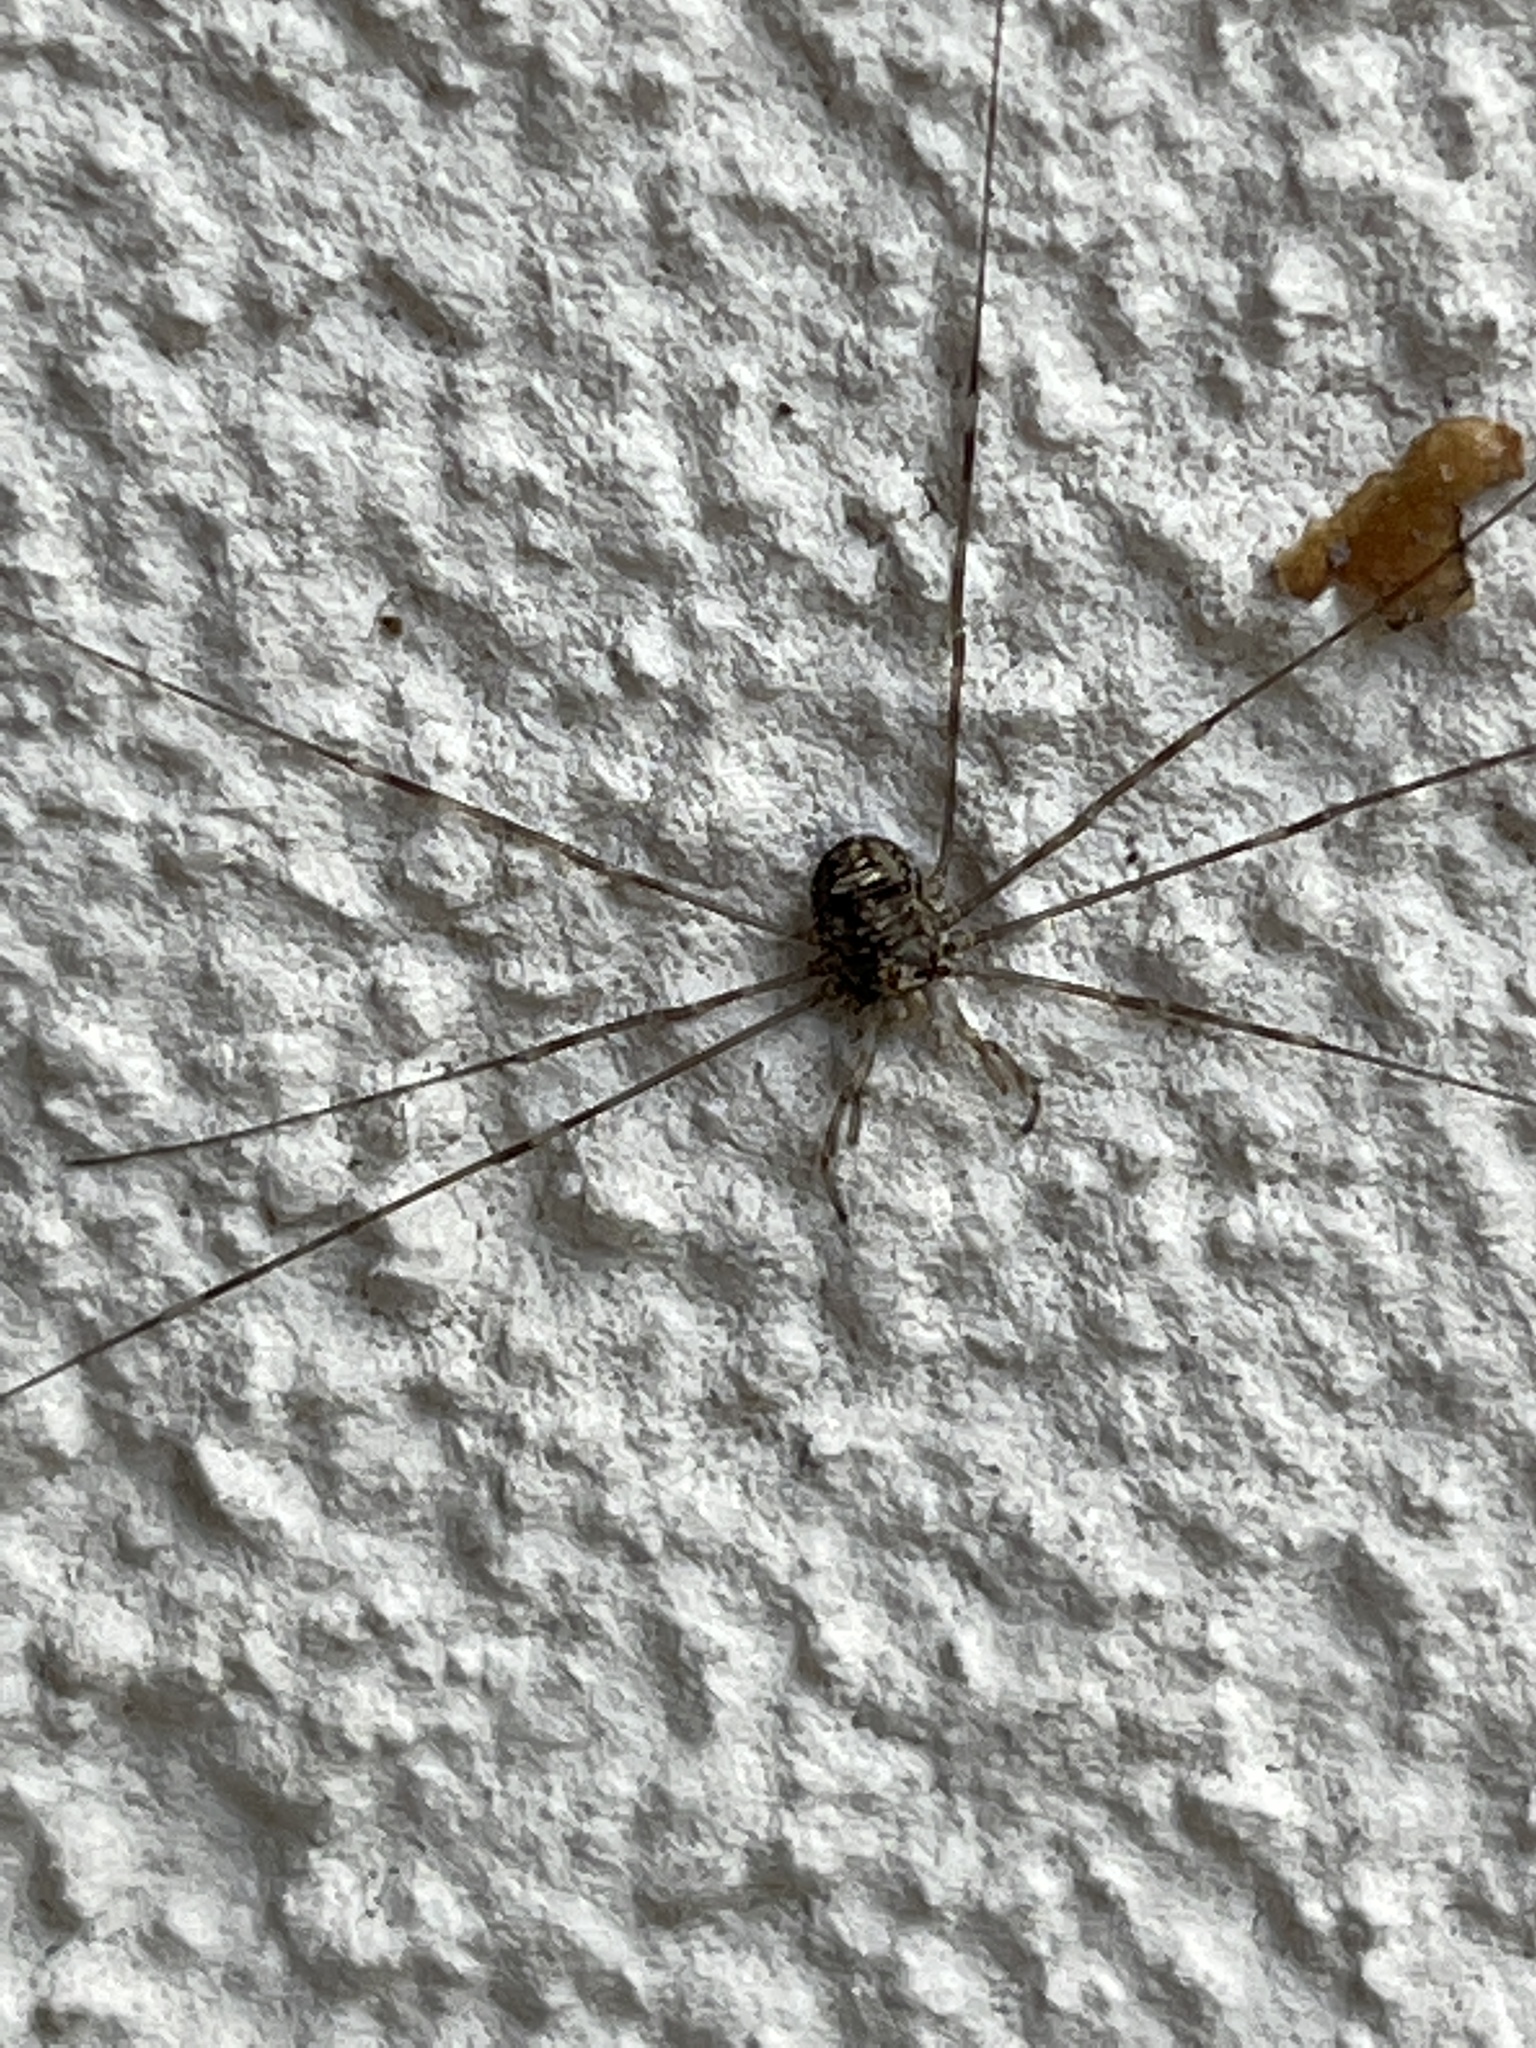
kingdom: Animalia
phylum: Arthropoda
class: Arachnida
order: Opiliones
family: Phalangiidae
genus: Dicranopalpus
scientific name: Dicranopalpus ramosus
